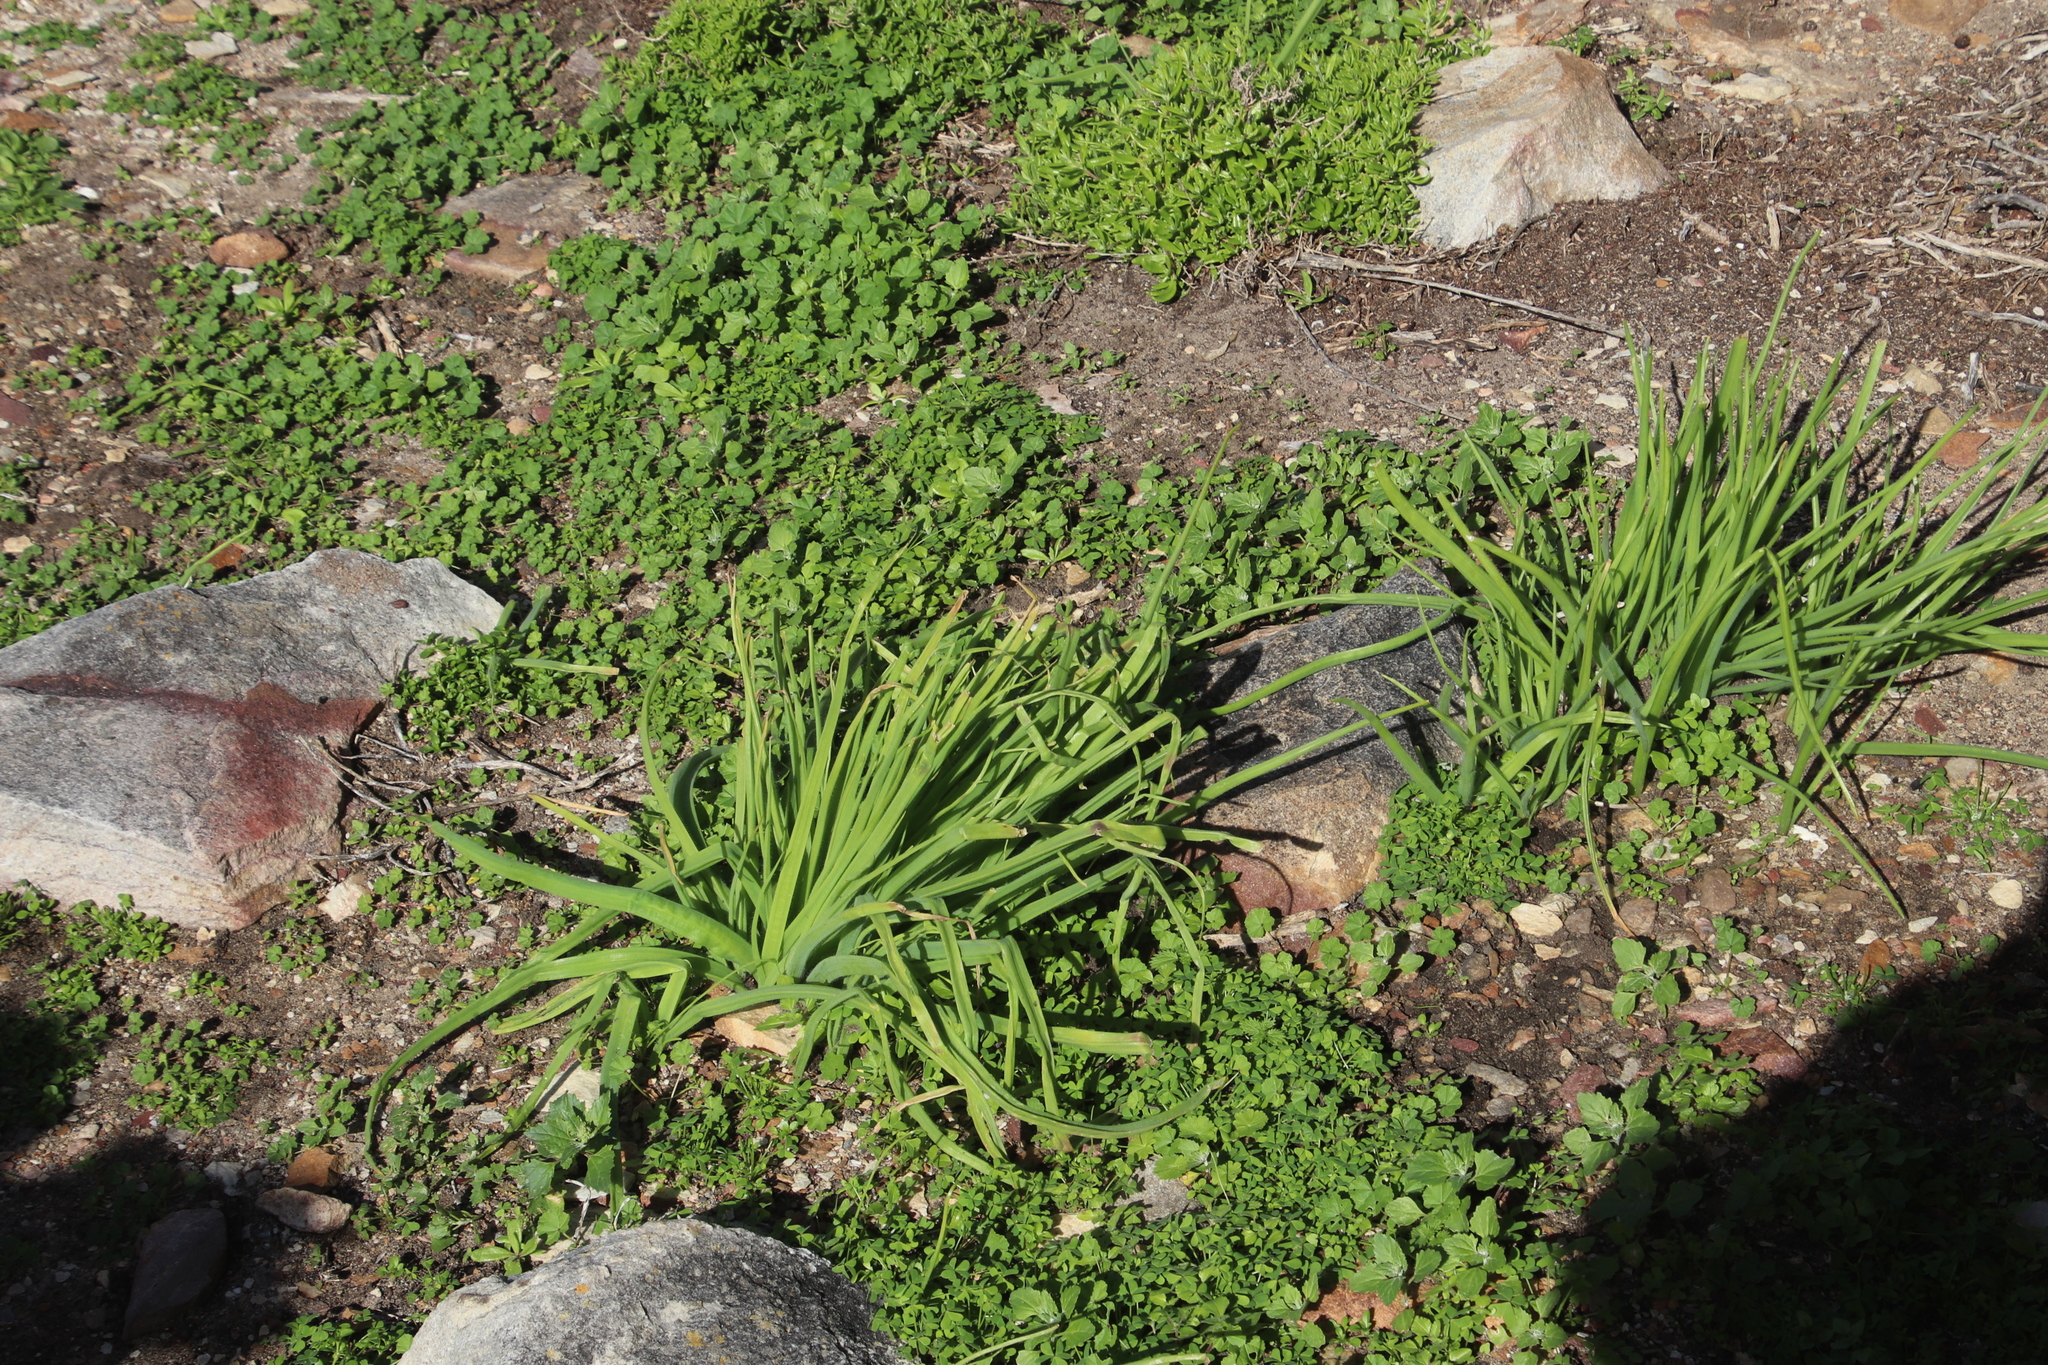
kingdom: Plantae
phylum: Tracheophyta
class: Liliopsida
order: Asparagales
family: Asphodelaceae
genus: Trachyandra
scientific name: Trachyandra ciliata
